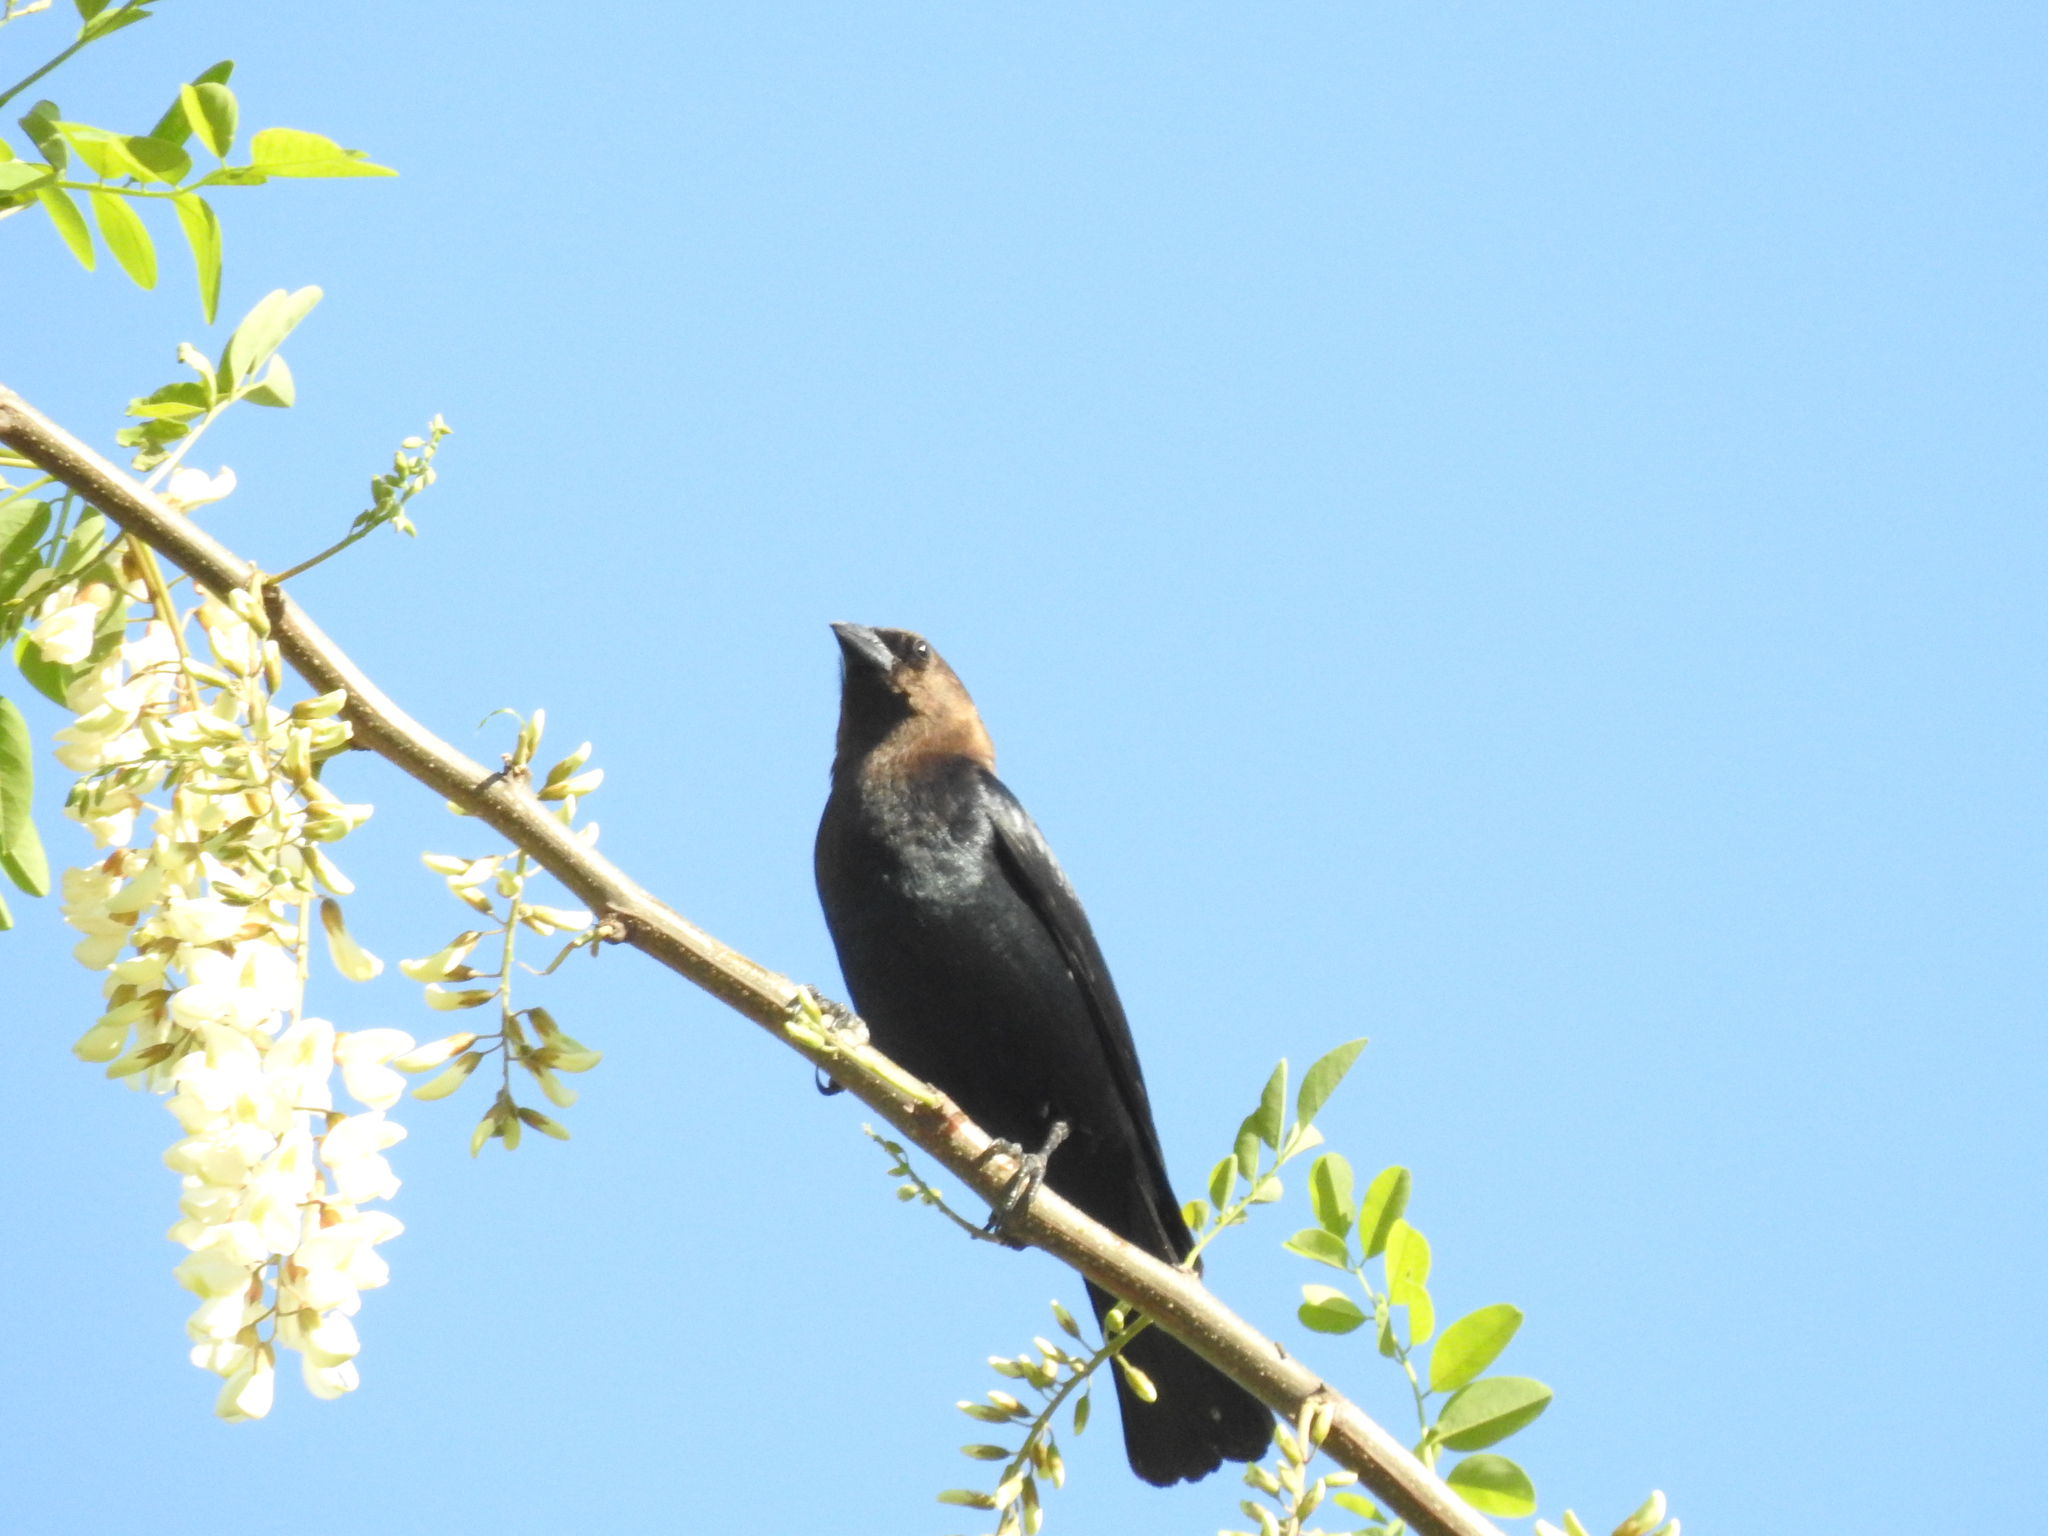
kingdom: Animalia
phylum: Chordata
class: Aves
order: Passeriformes
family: Icteridae
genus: Molothrus
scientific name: Molothrus ater
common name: Brown-headed cowbird
